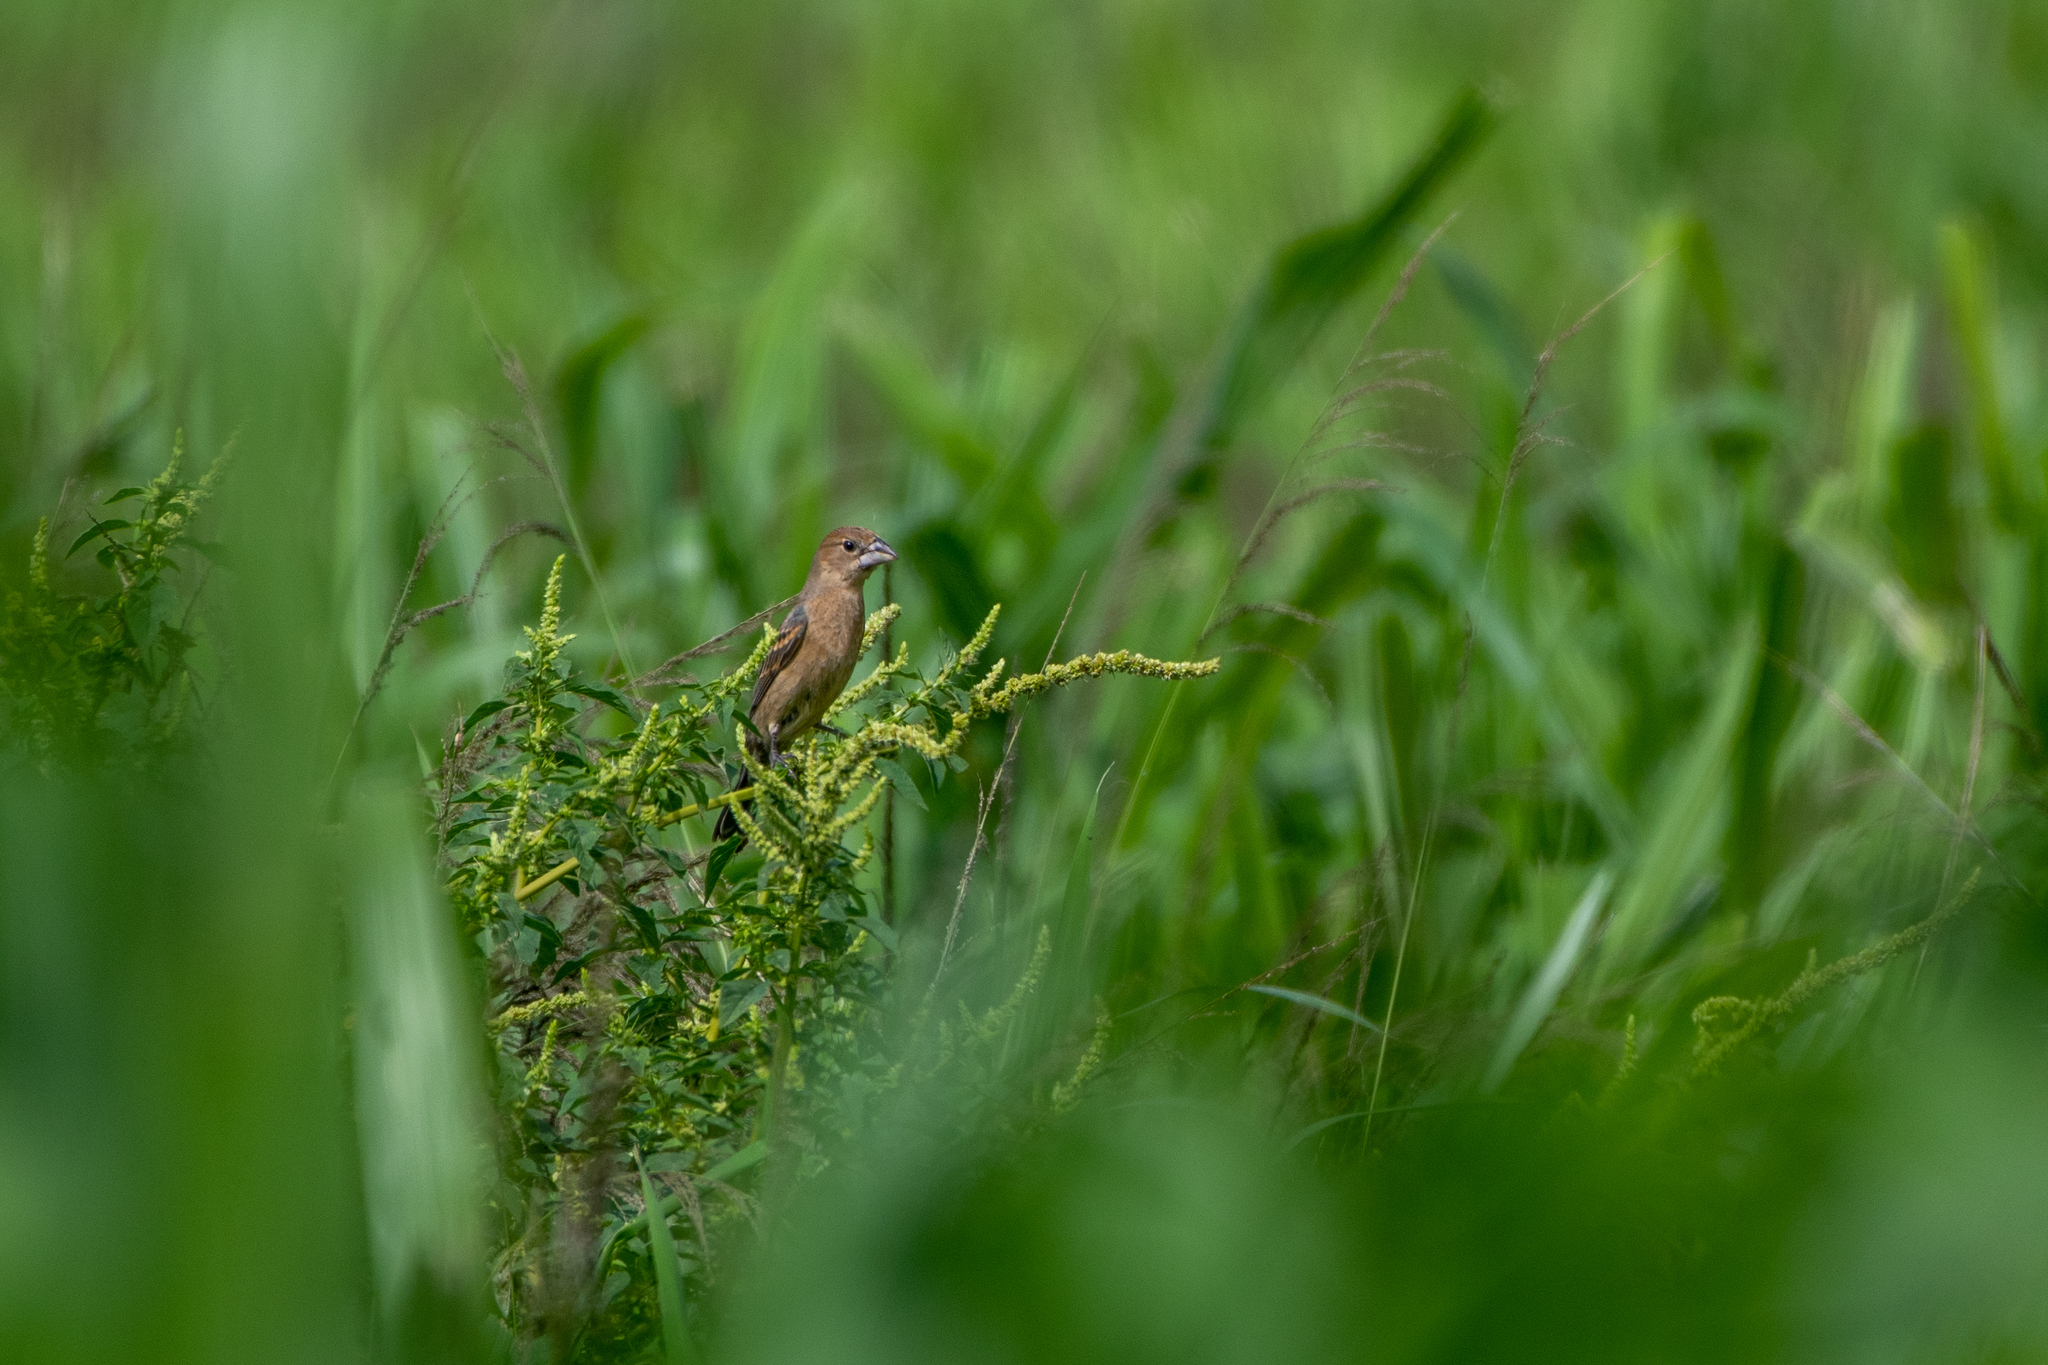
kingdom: Animalia
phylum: Chordata
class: Aves
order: Passeriformes
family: Cardinalidae
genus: Passerina
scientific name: Passerina caerulea
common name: Blue grosbeak
